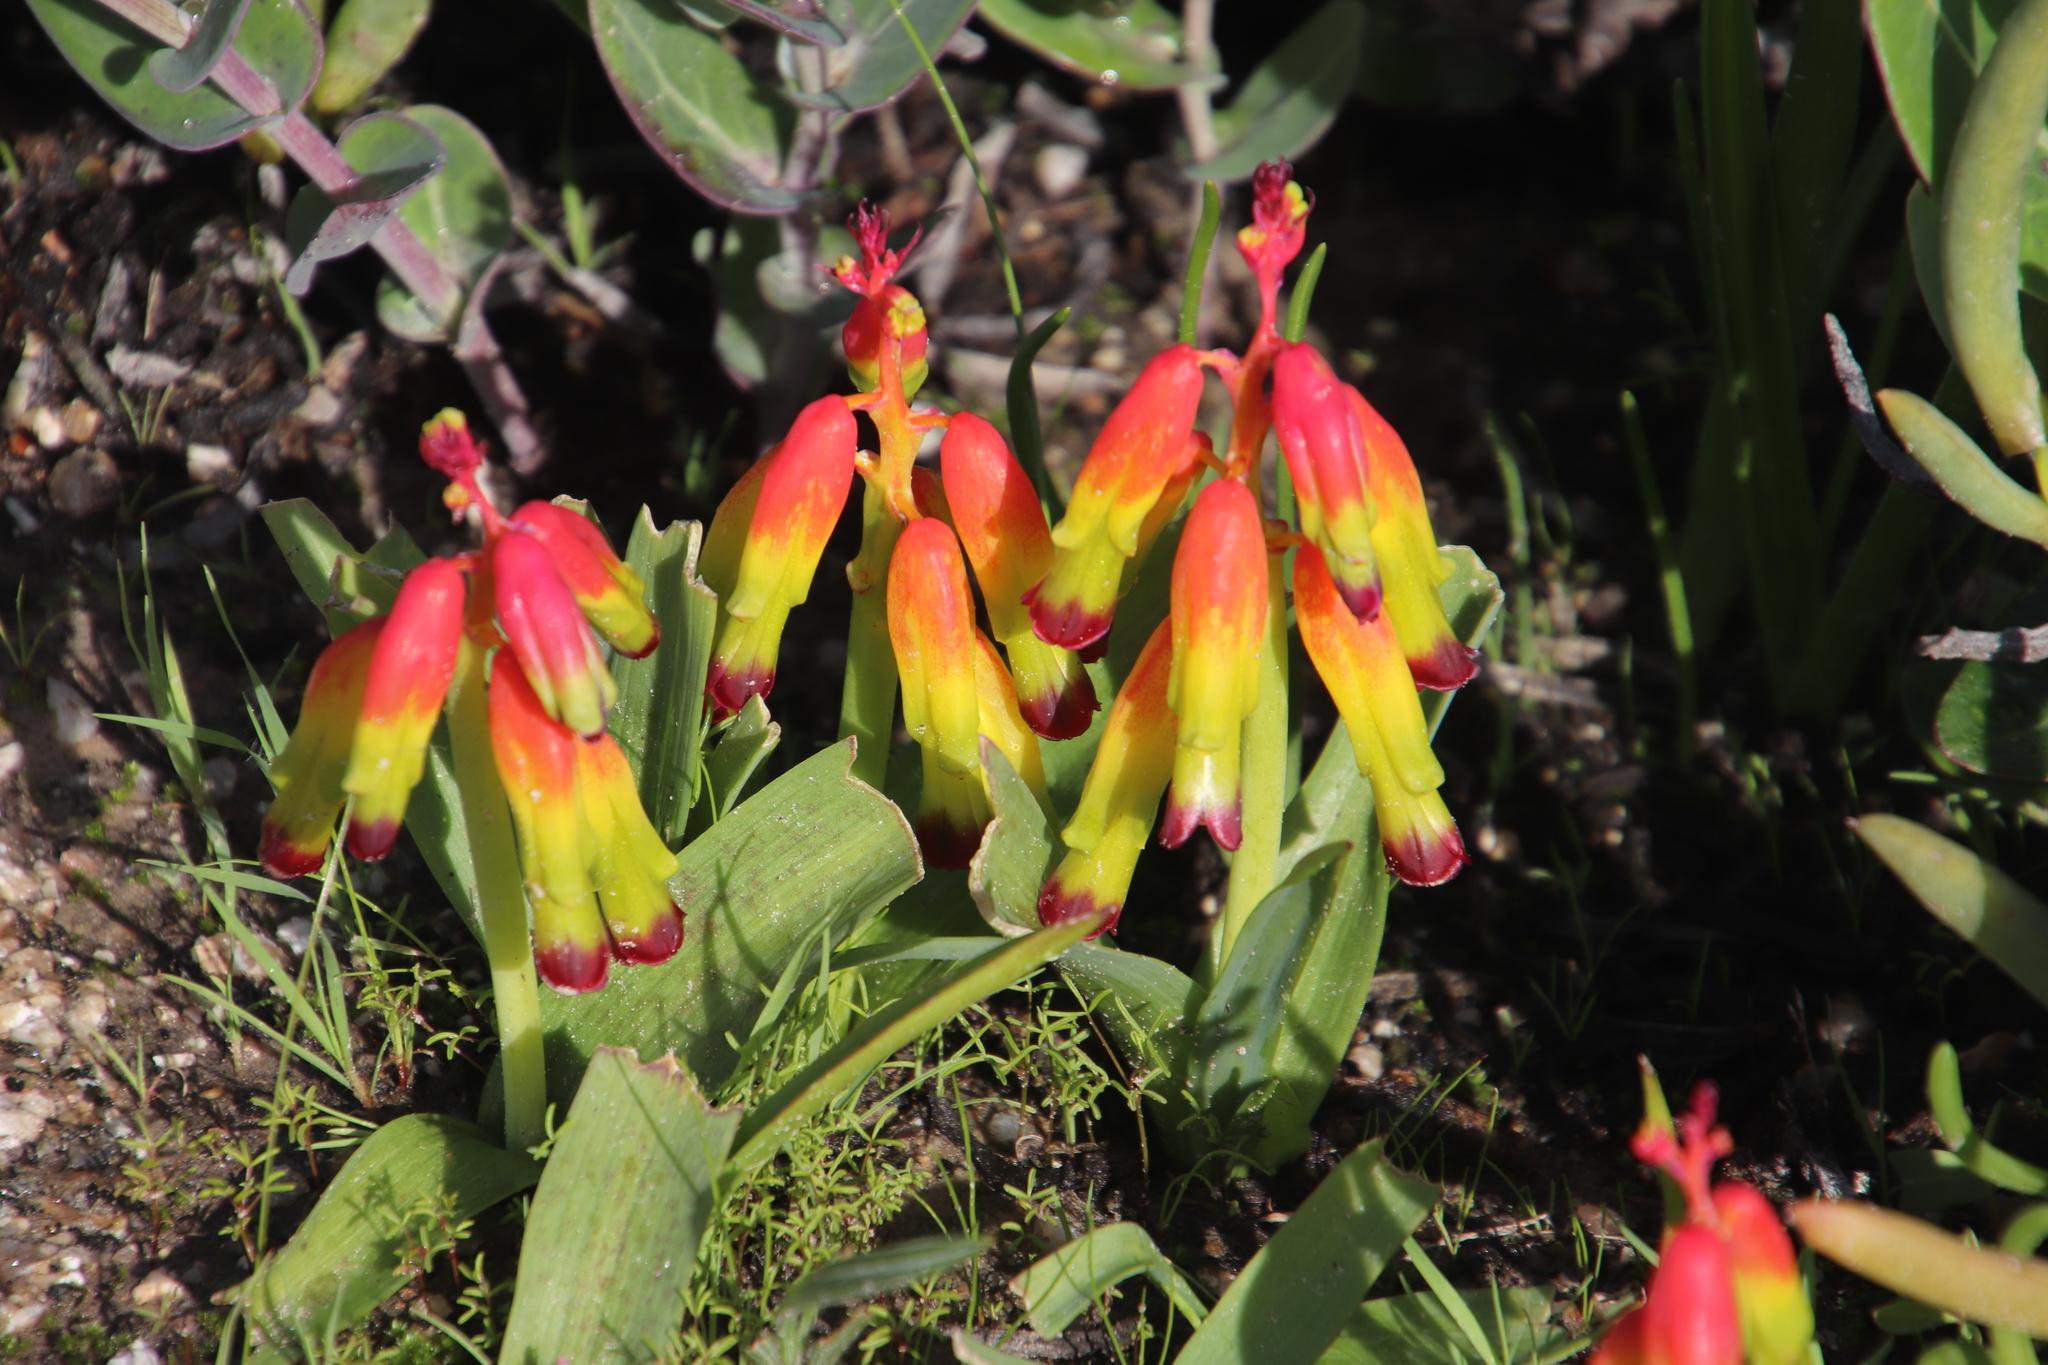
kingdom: Plantae
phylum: Tracheophyta
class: Liliopsida
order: Asparagales
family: Asparagaceae
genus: Lachenalia
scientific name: Lachenalia quadricolor
